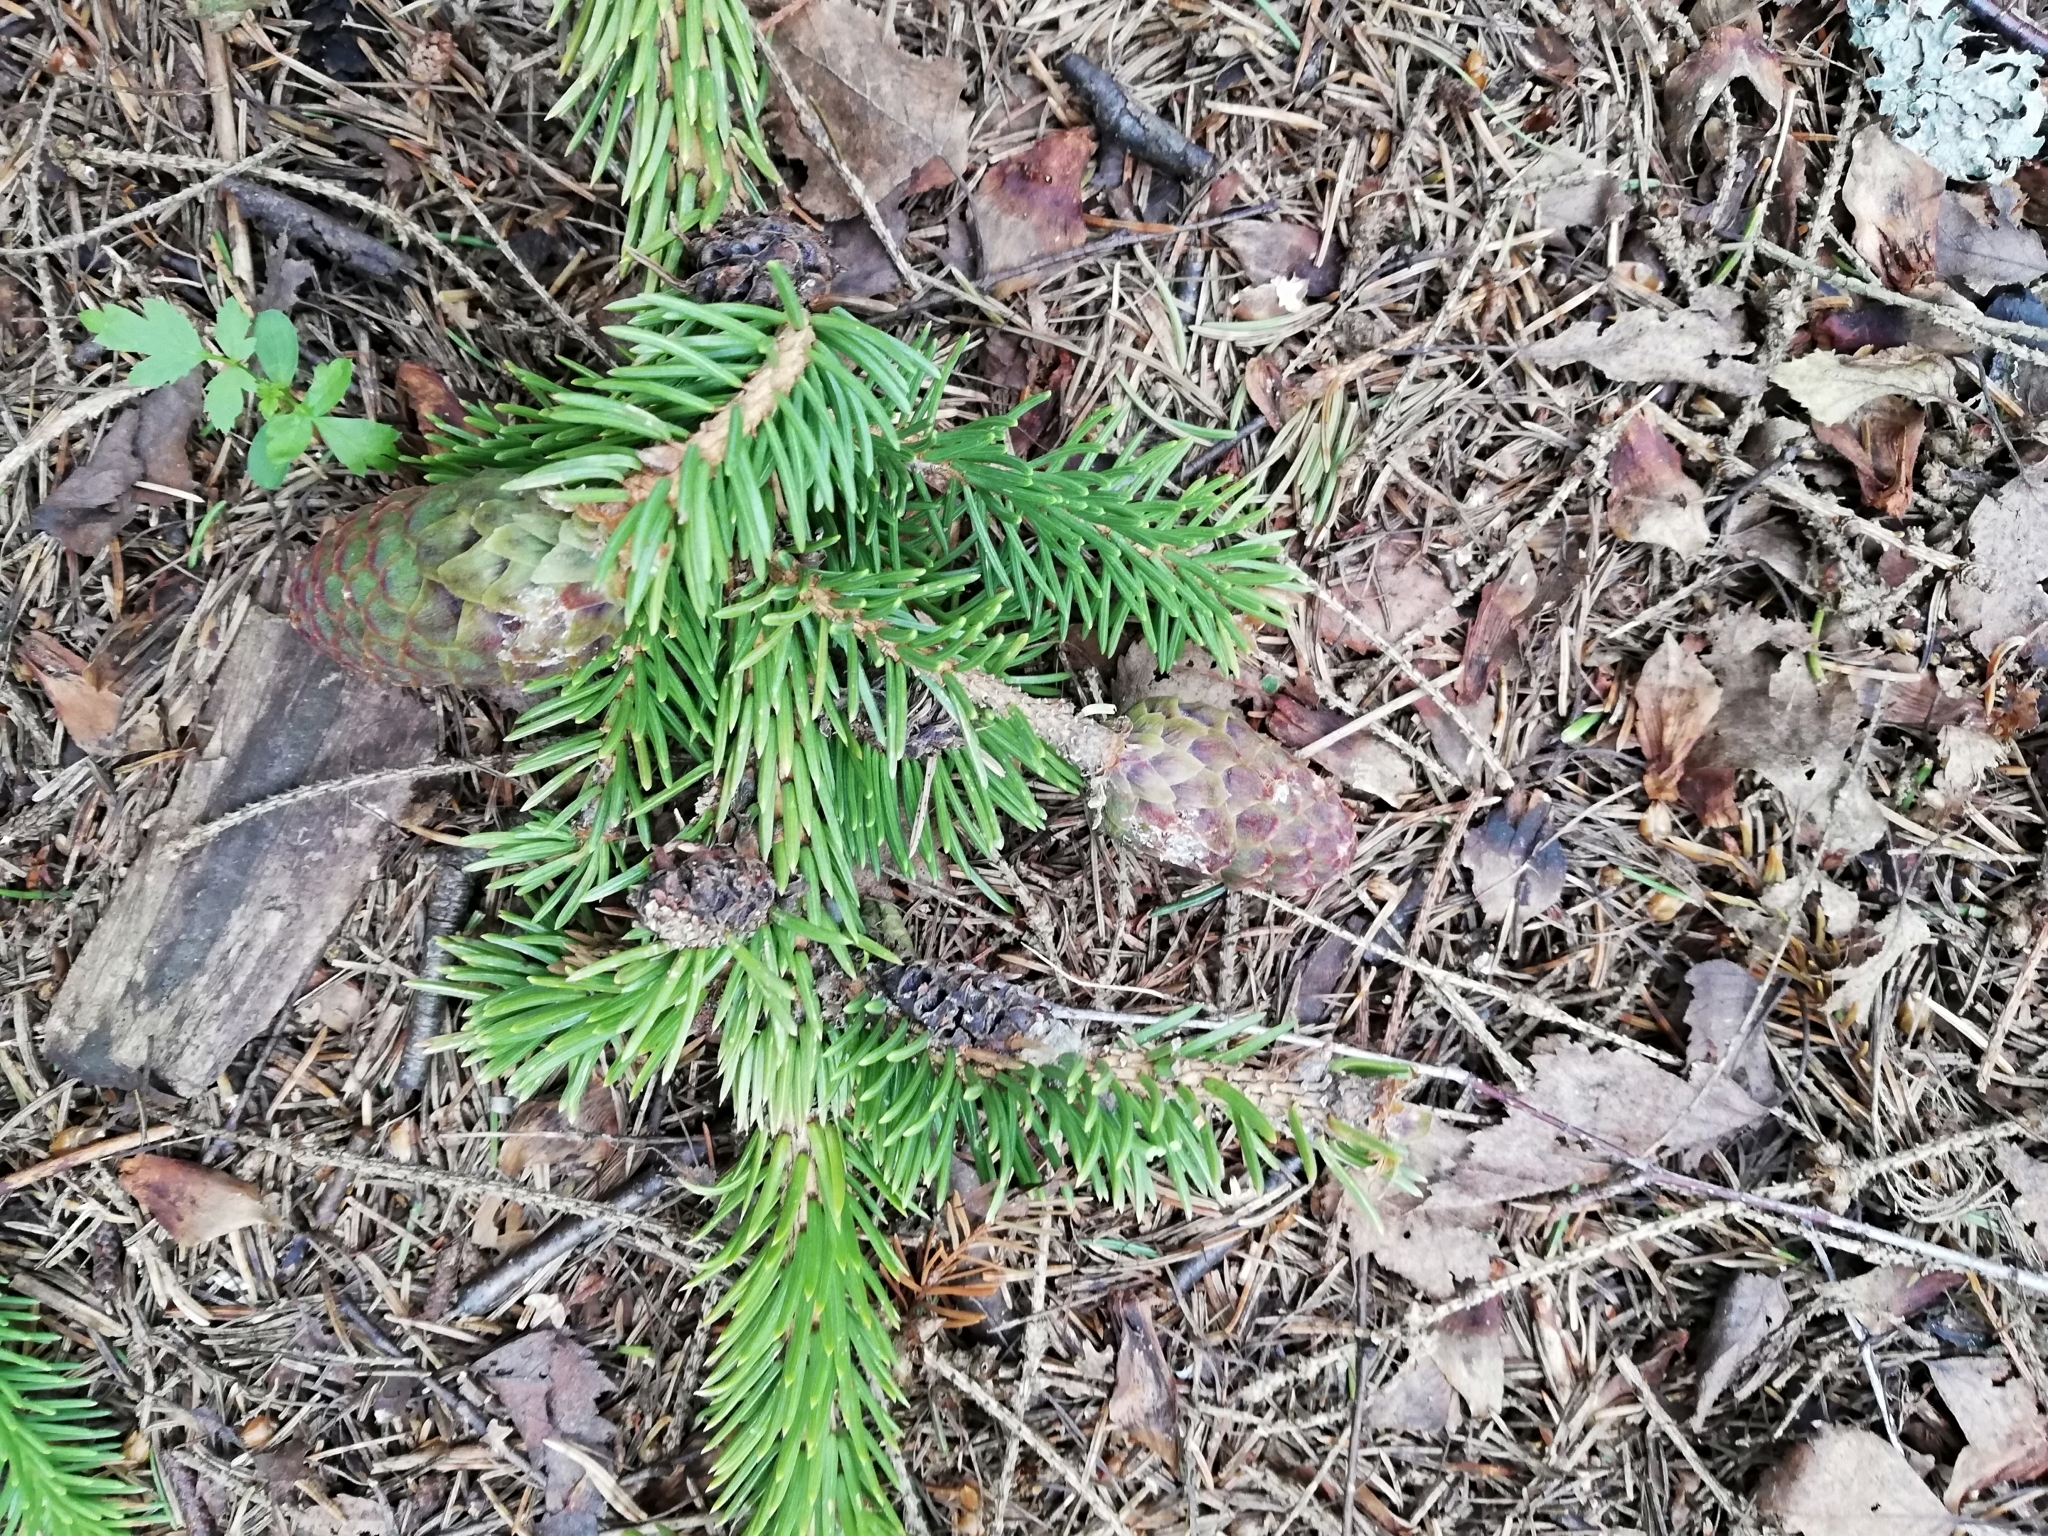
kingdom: Plantae
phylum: Tracheophyta
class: Pinopsida
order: Pinales
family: Pinaceae
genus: Picea
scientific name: Picea abies
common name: Norway spruce
